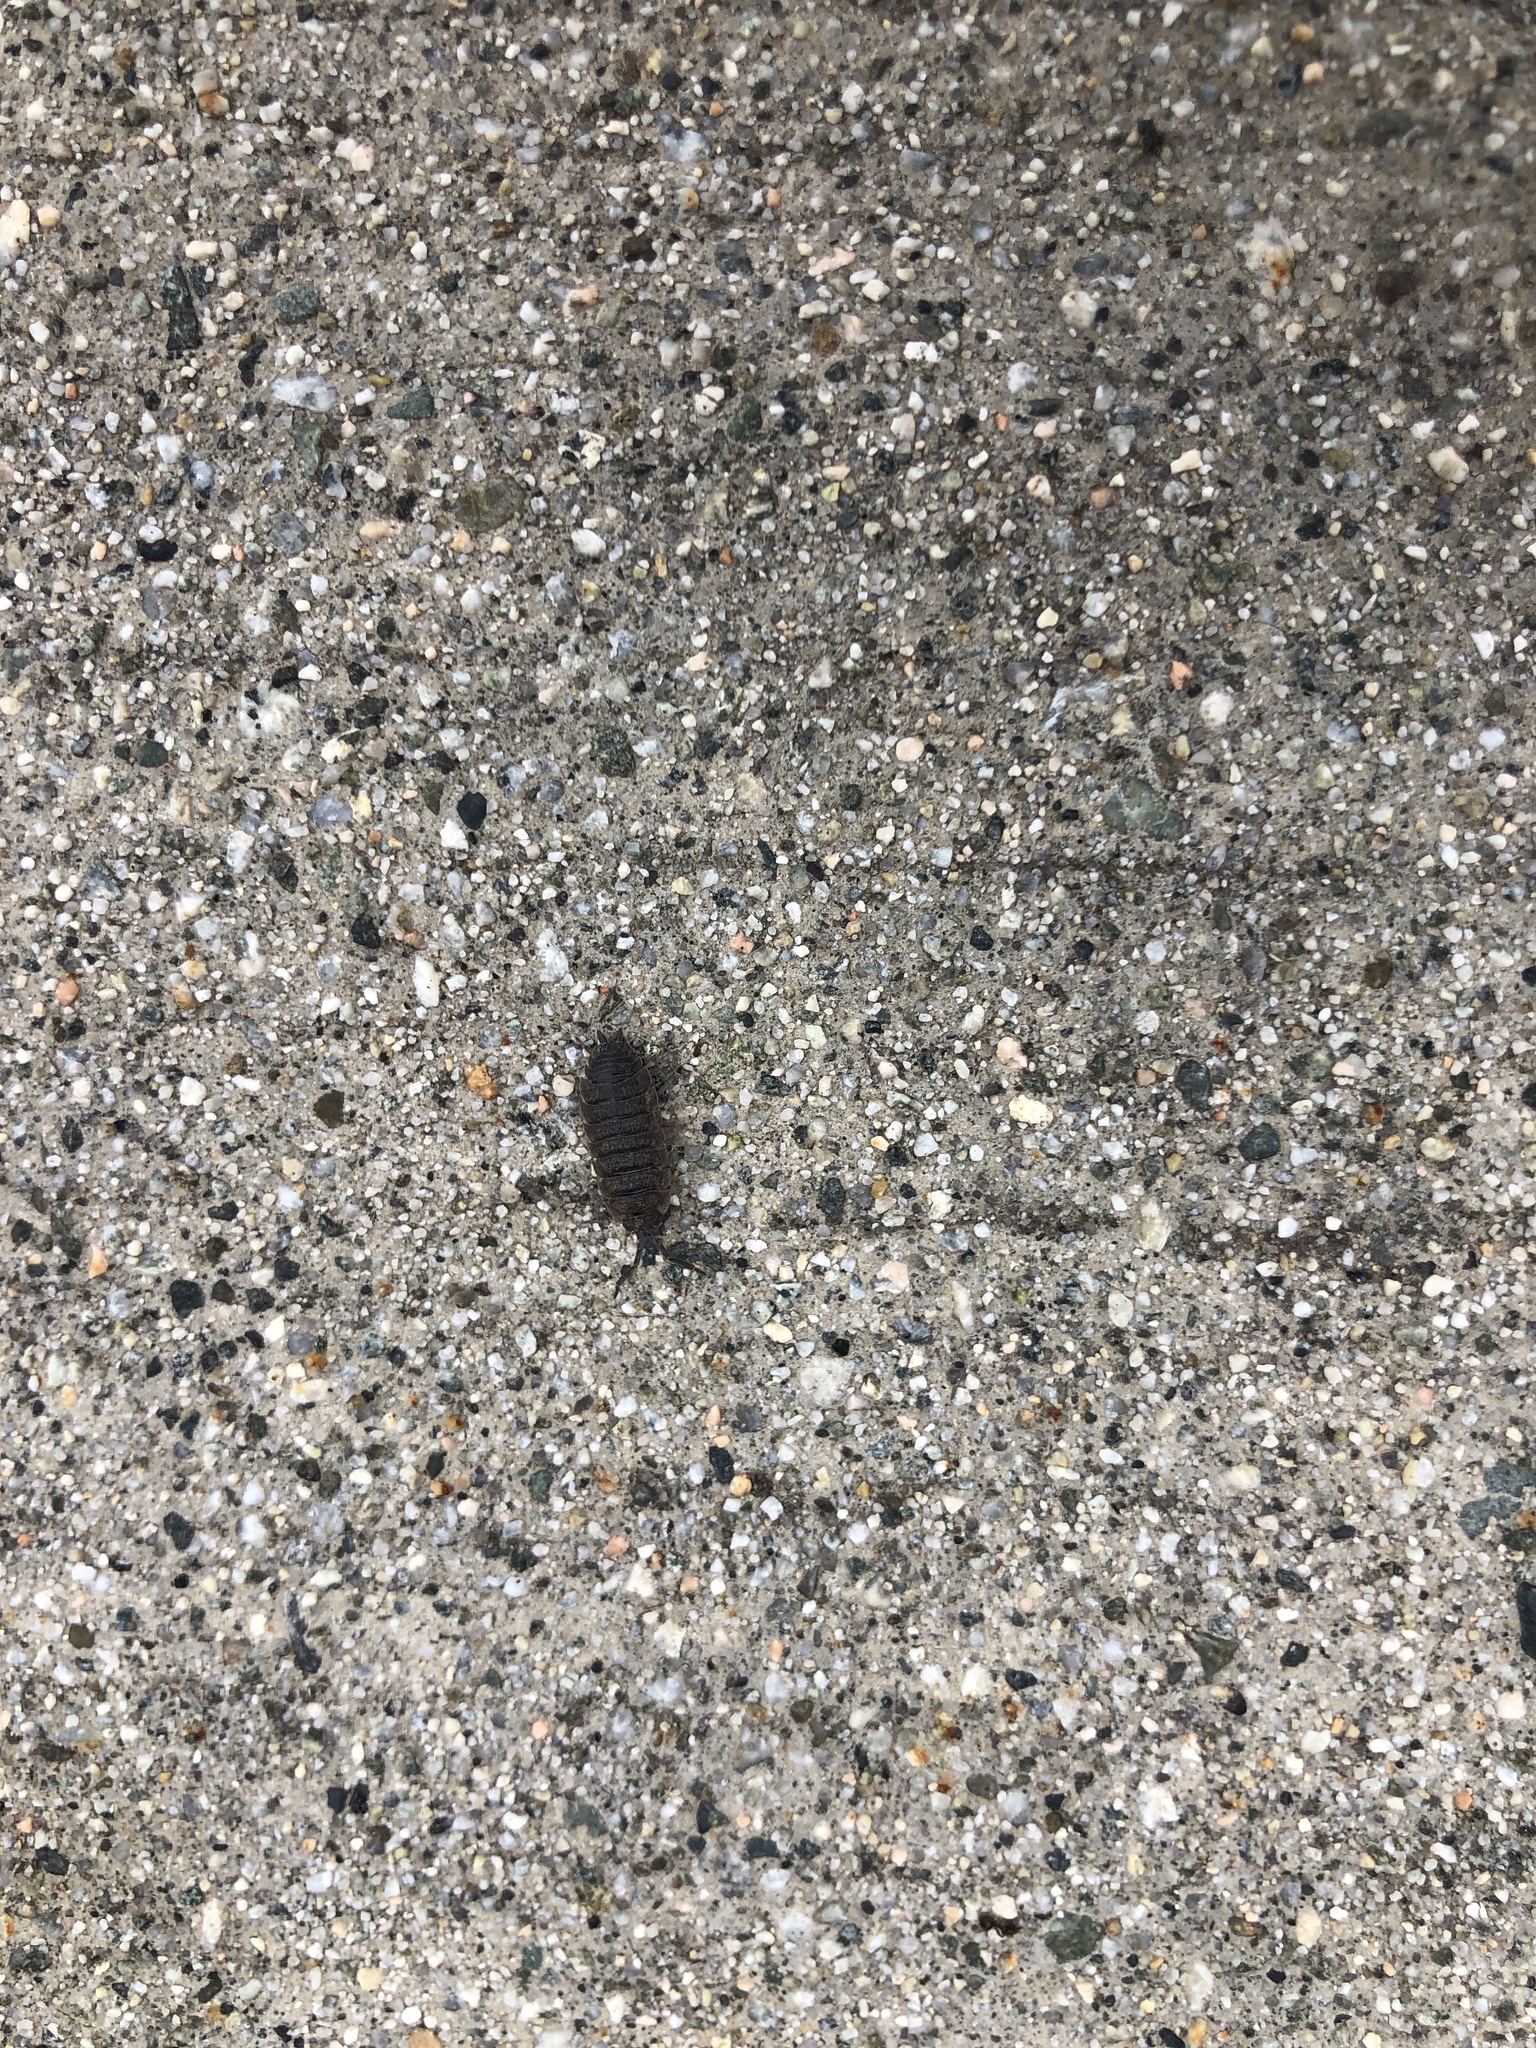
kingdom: Animalia
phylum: Arthropoda
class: Malacostraca
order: Isopoda
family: Porcellionidae
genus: Porcellio
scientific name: Porcellio scaber
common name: Common rough woodlouse
